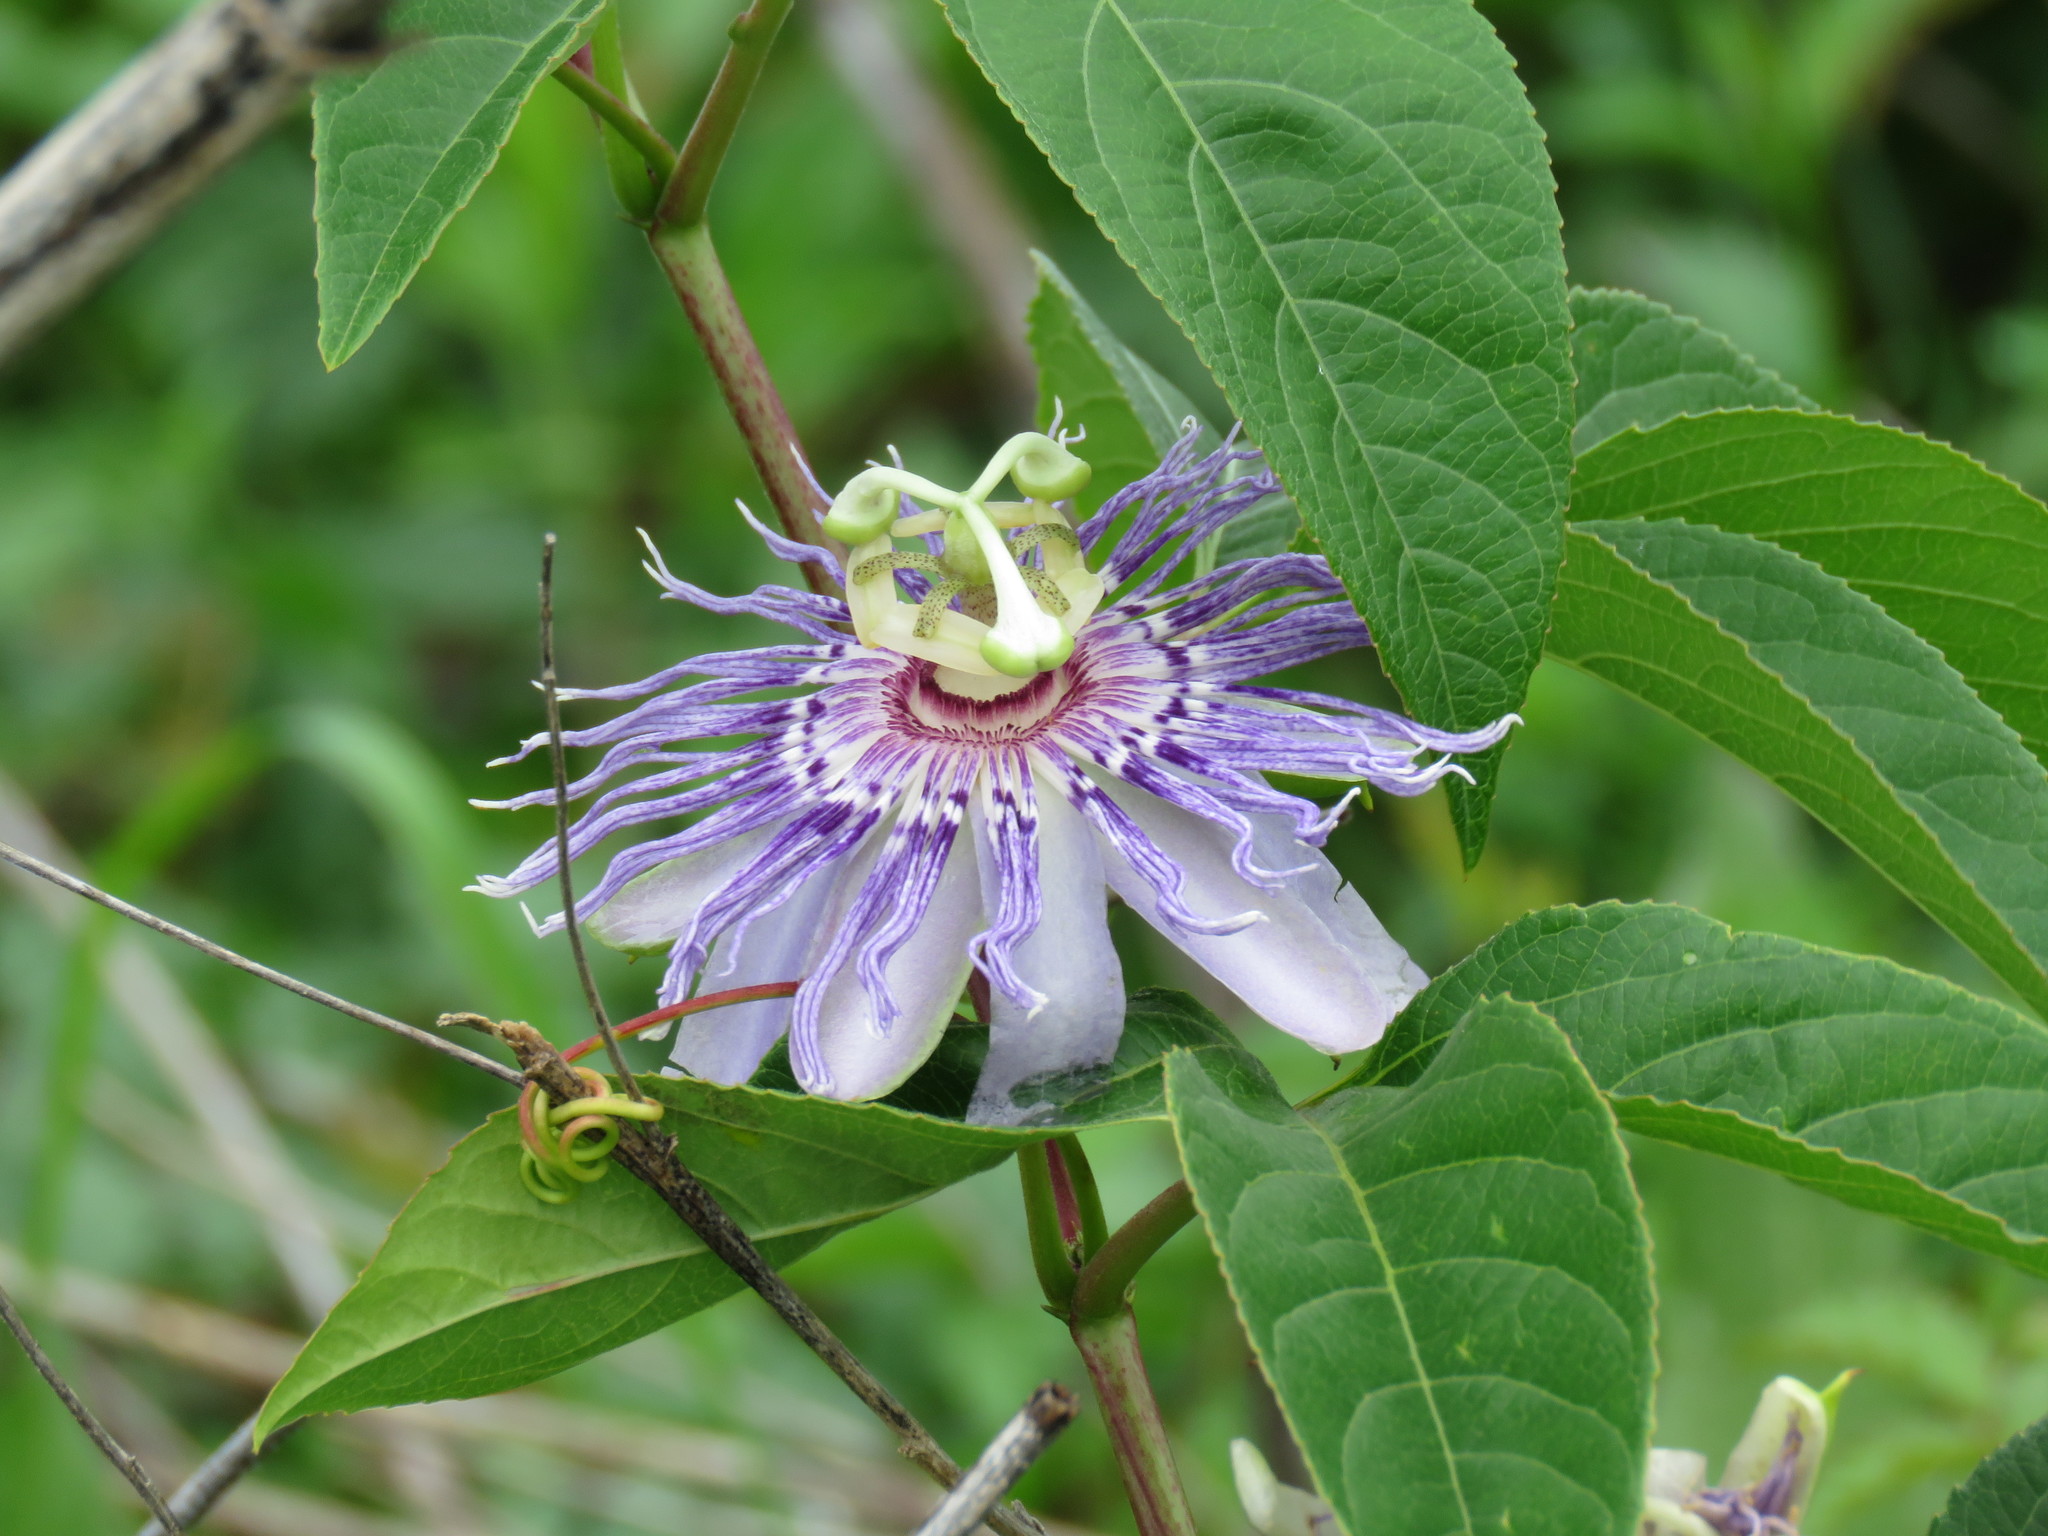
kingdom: Plantae
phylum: Tracheophyta
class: Magnoliopsida
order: Malpighiales
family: Passifloraceae
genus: Passiflora
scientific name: Passiflora incarnata
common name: Apricot-vine
